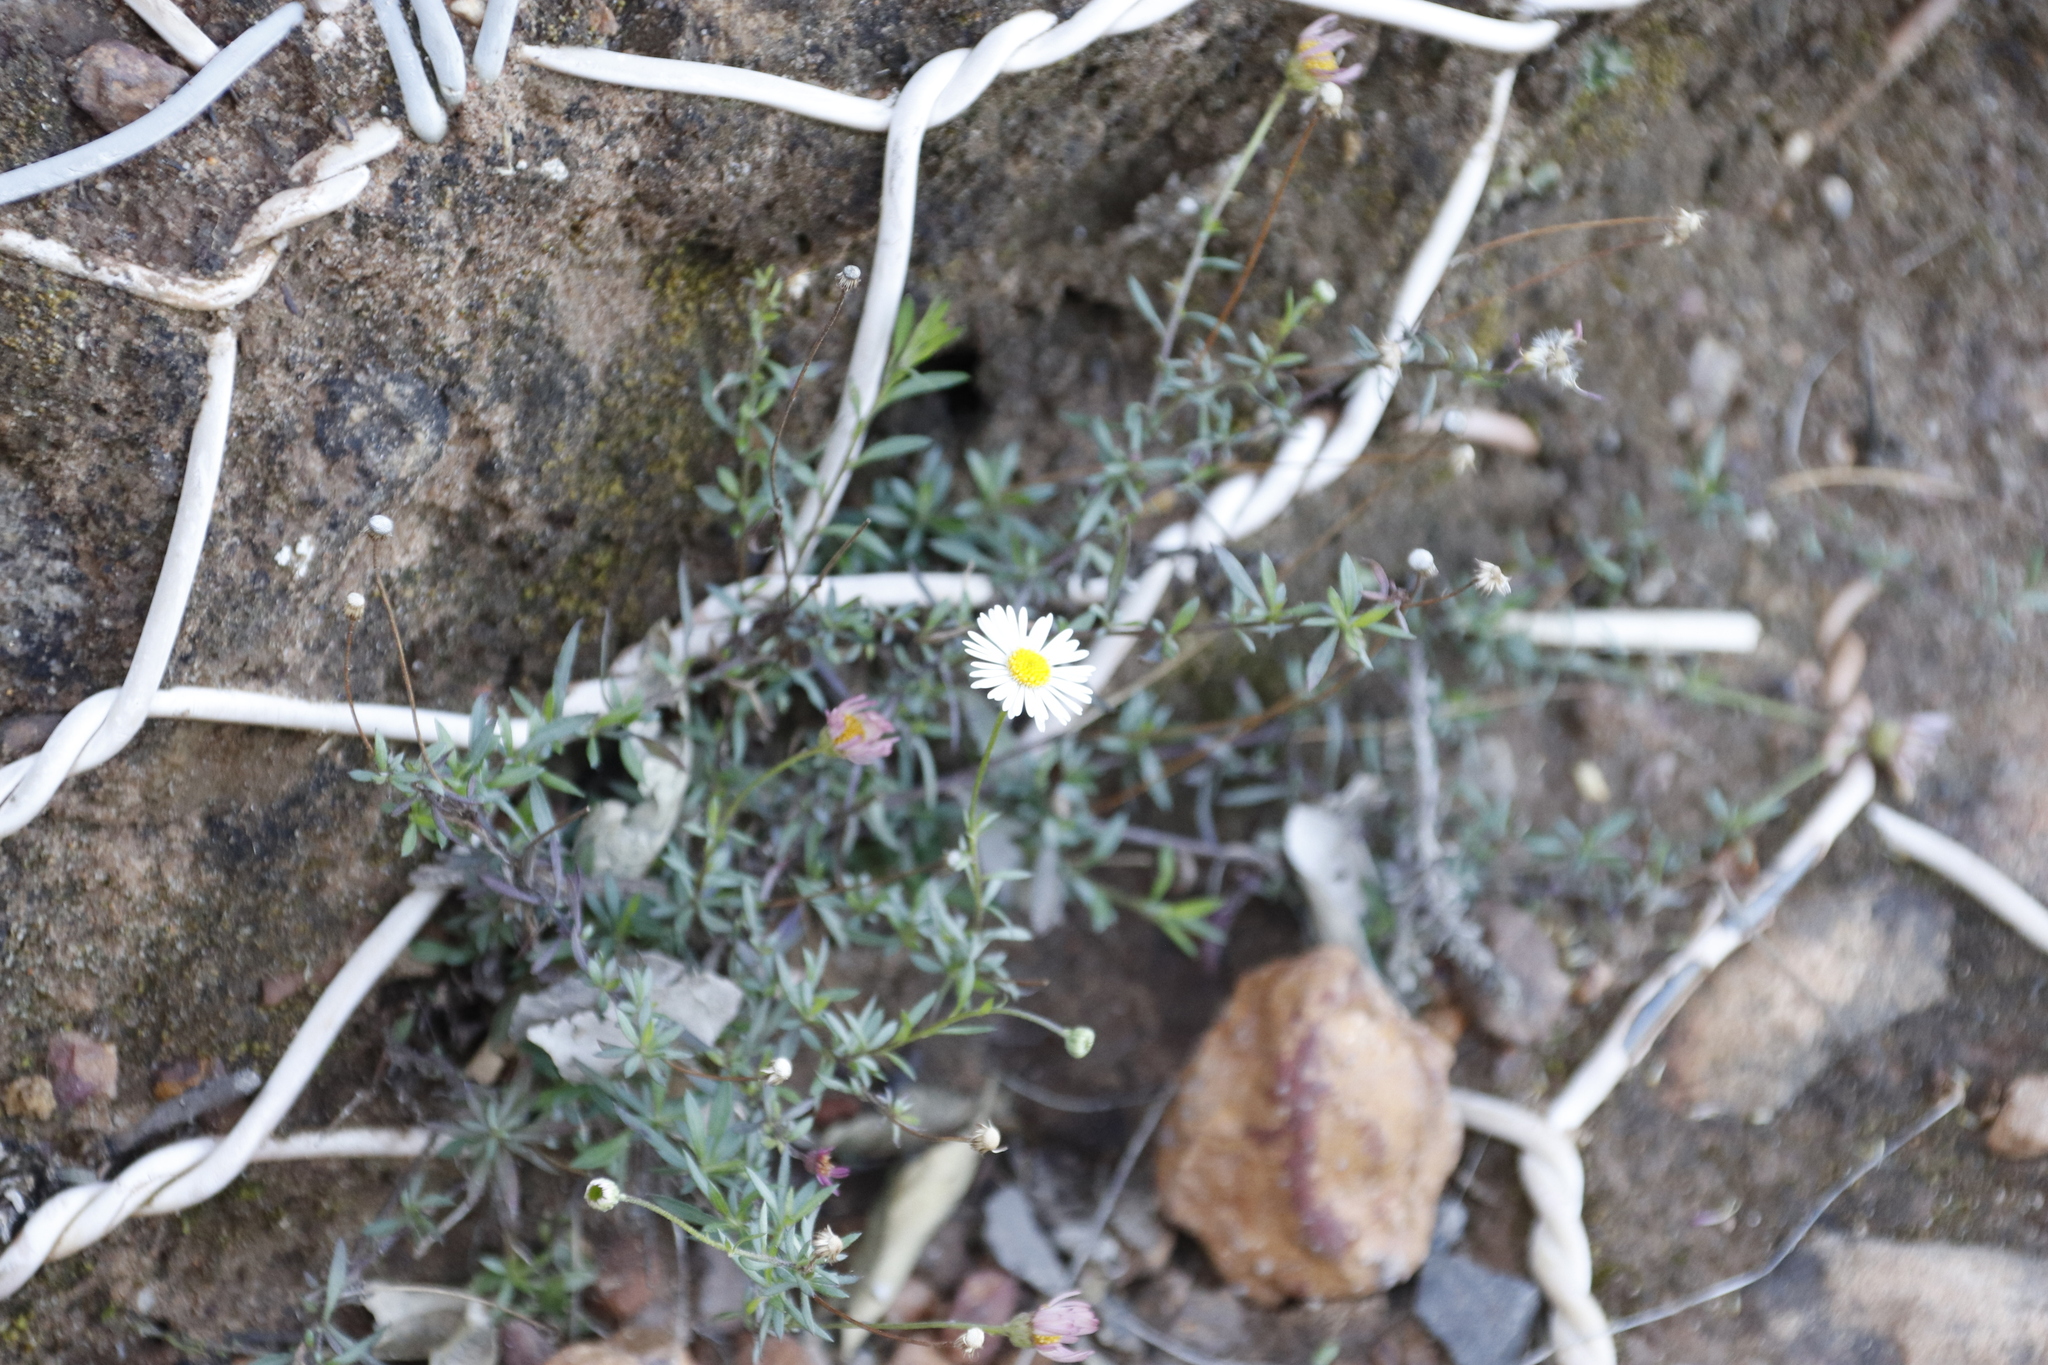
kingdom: Plantae
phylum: Tracheophyta
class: Magnoliopsida
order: Asterales
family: Asteraceae
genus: Erigeron
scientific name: Erigeron karvinskianus
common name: Mexican fleabane
